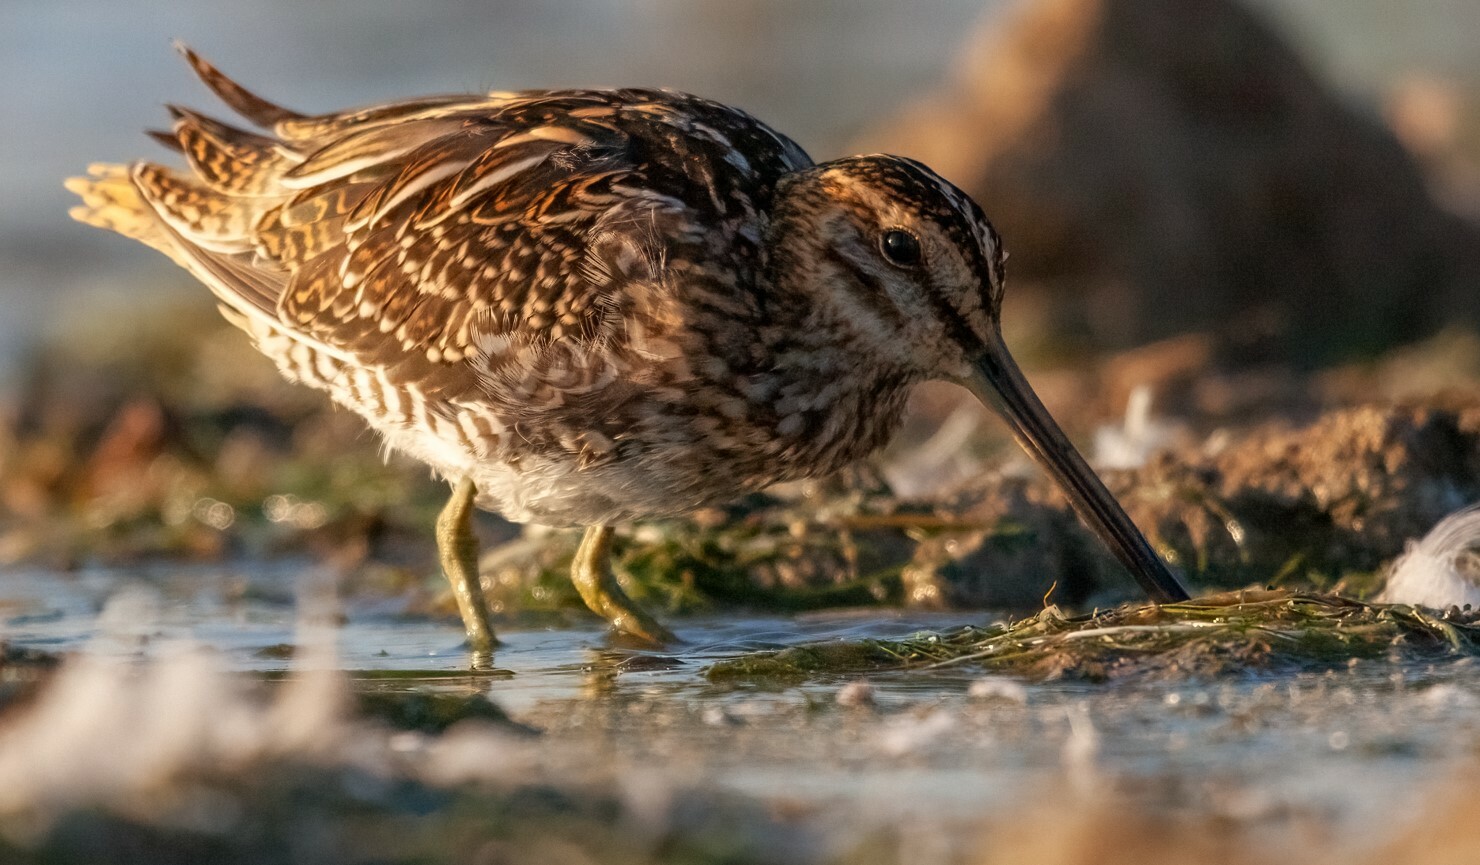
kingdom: Animalia
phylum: Chordata
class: Aves
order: Charadriiformes
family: Scolopacidae
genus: Gallinago
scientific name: Gallinago gallinago
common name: Common snipe
